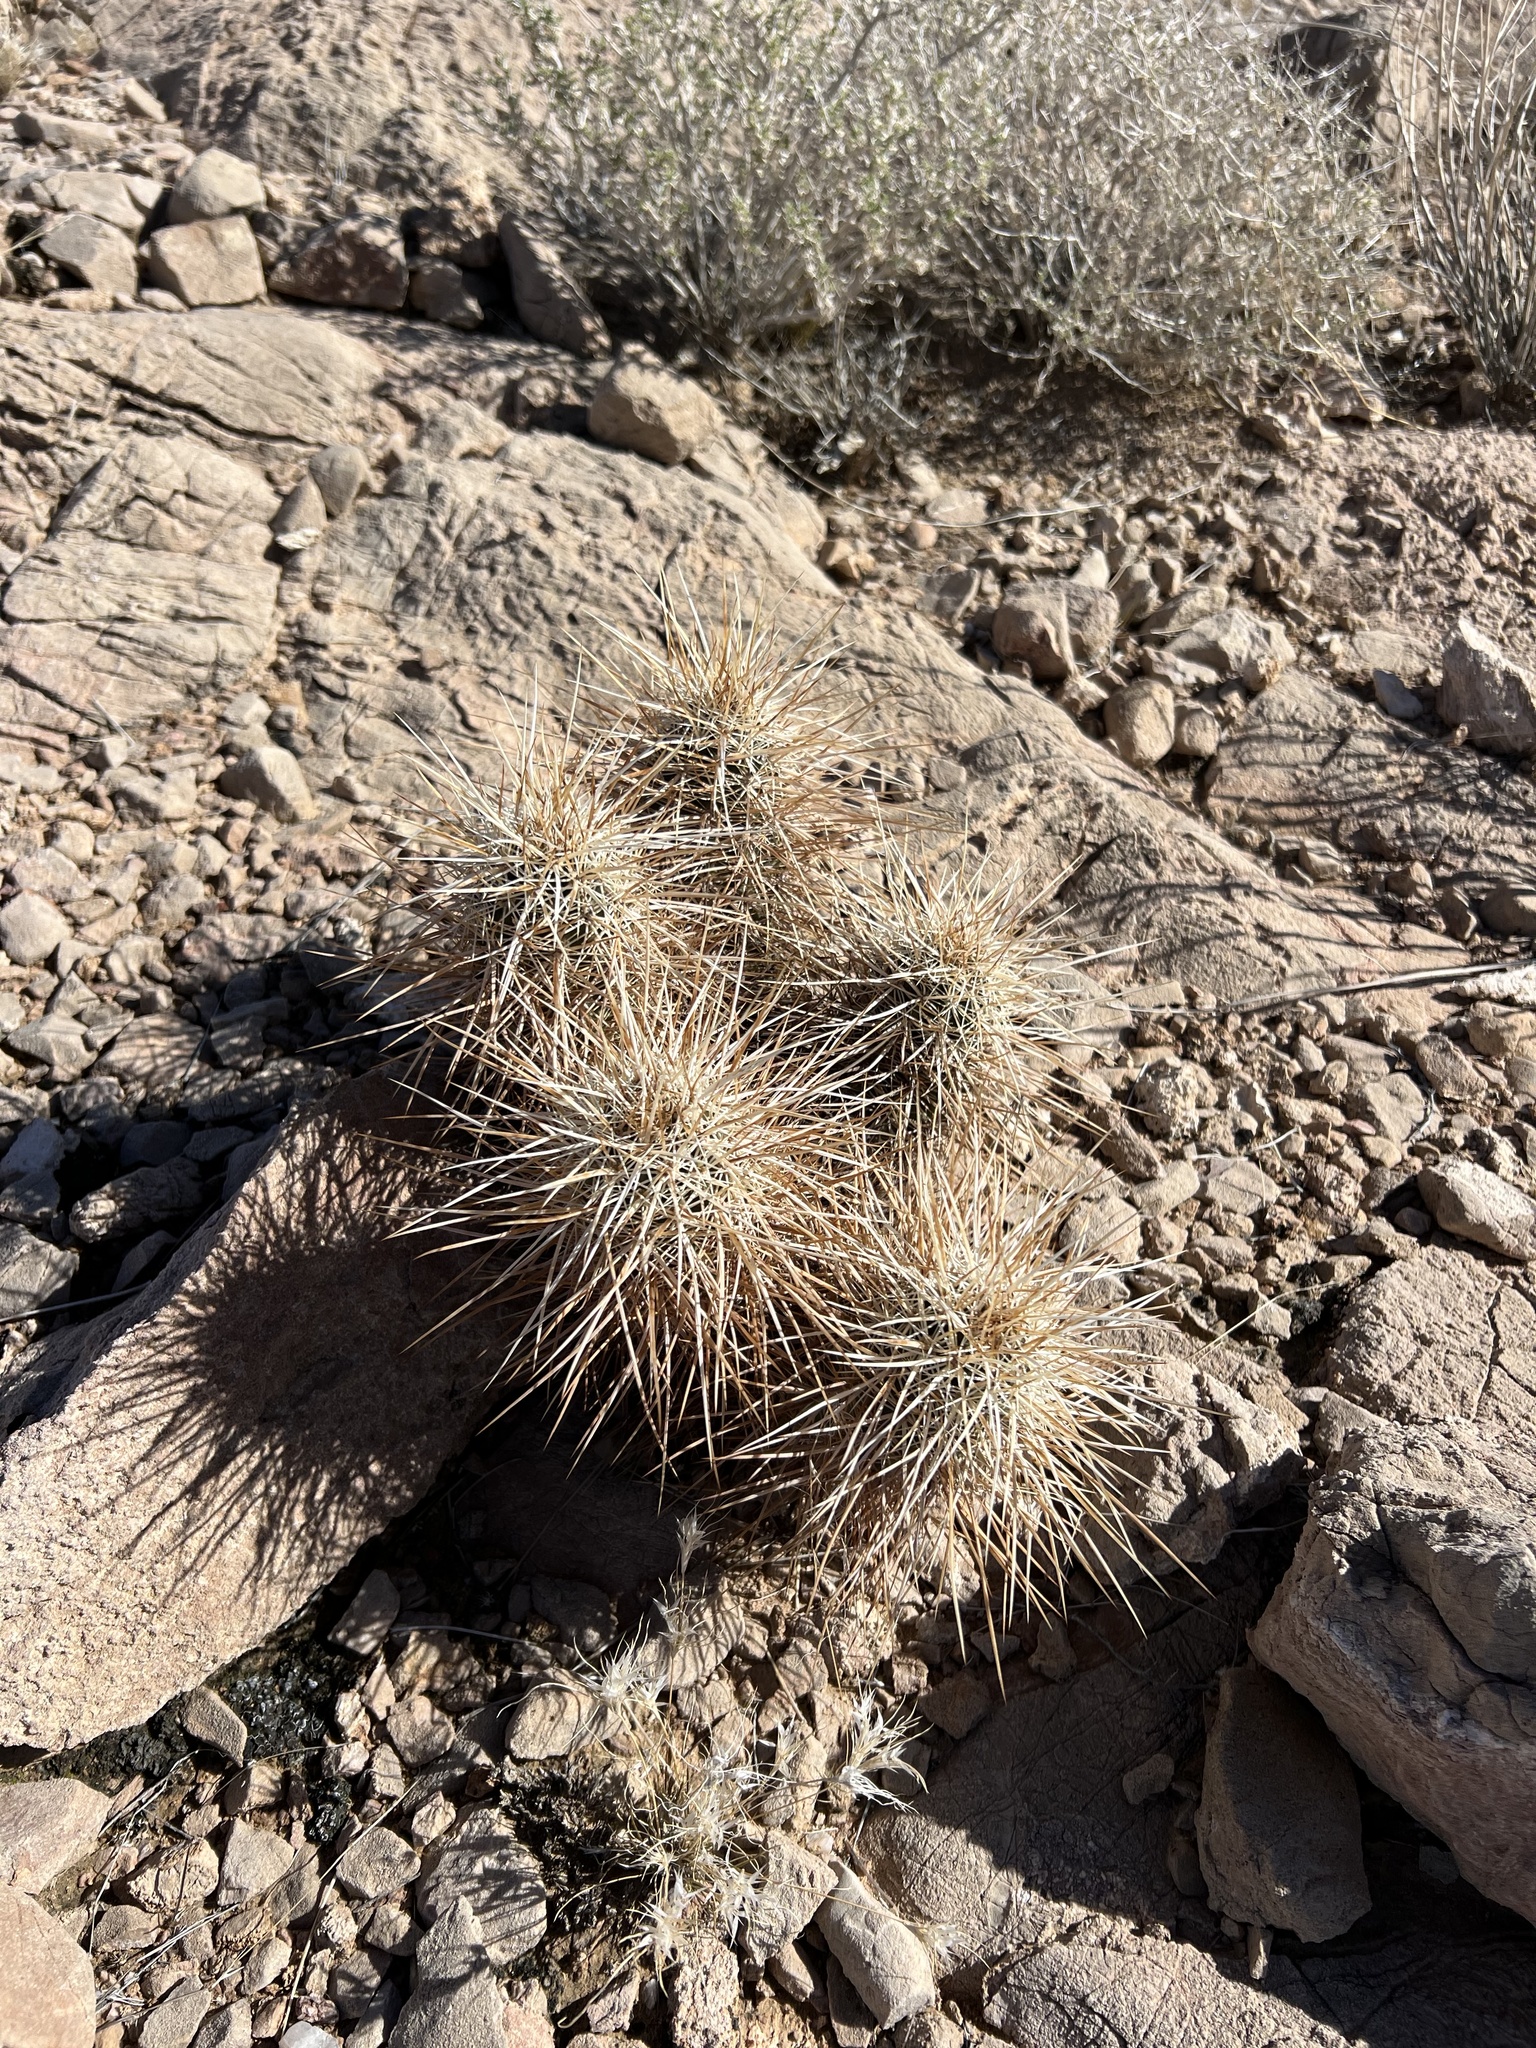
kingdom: Plantae
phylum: Tracheophyta
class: Magnoliopsida
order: Caryophyllales
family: Cactaceae
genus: Echinocereus
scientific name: Echinocereus engelmannii
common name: Engelmann's hedgehog cactus
